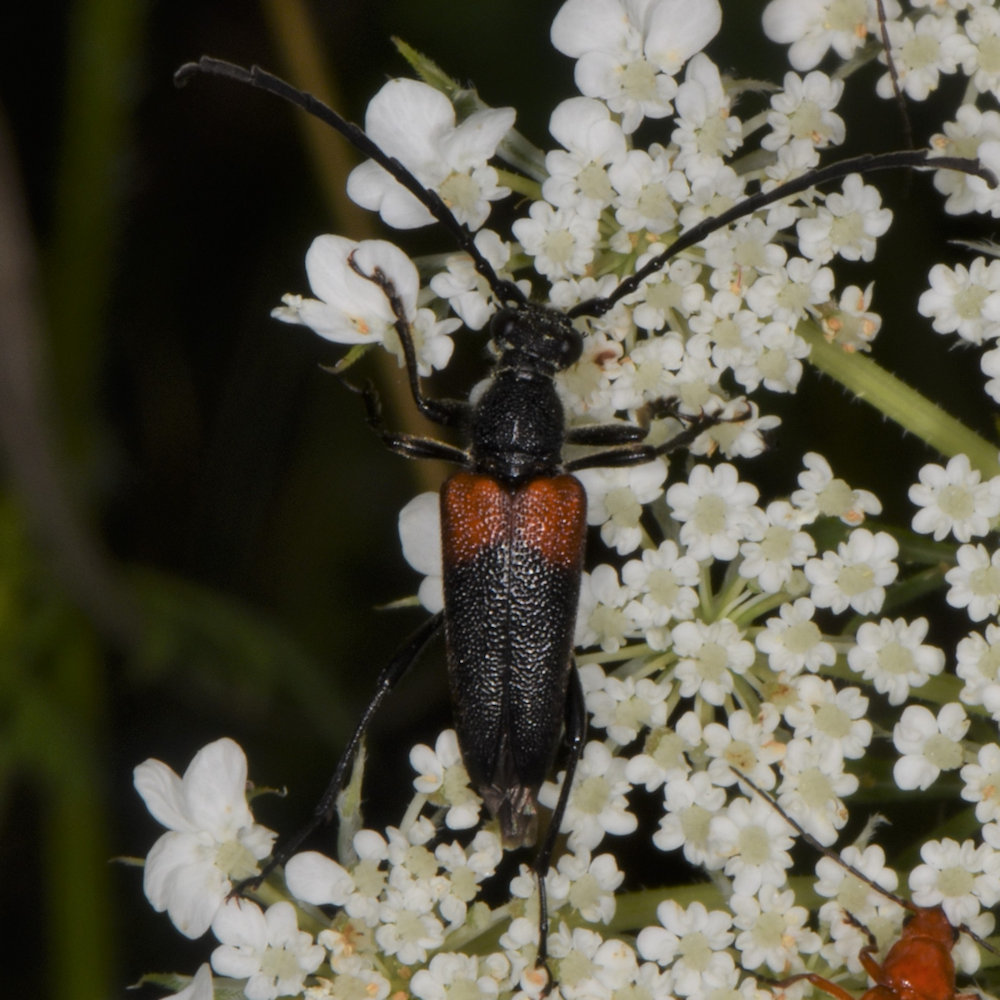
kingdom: Animalia
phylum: Arthropoda
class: Insecta
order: Coleoptera
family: Cerambycidae
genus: Stictoleptura
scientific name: Stictoleptura canadensis
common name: Red-shouldered pine borer
